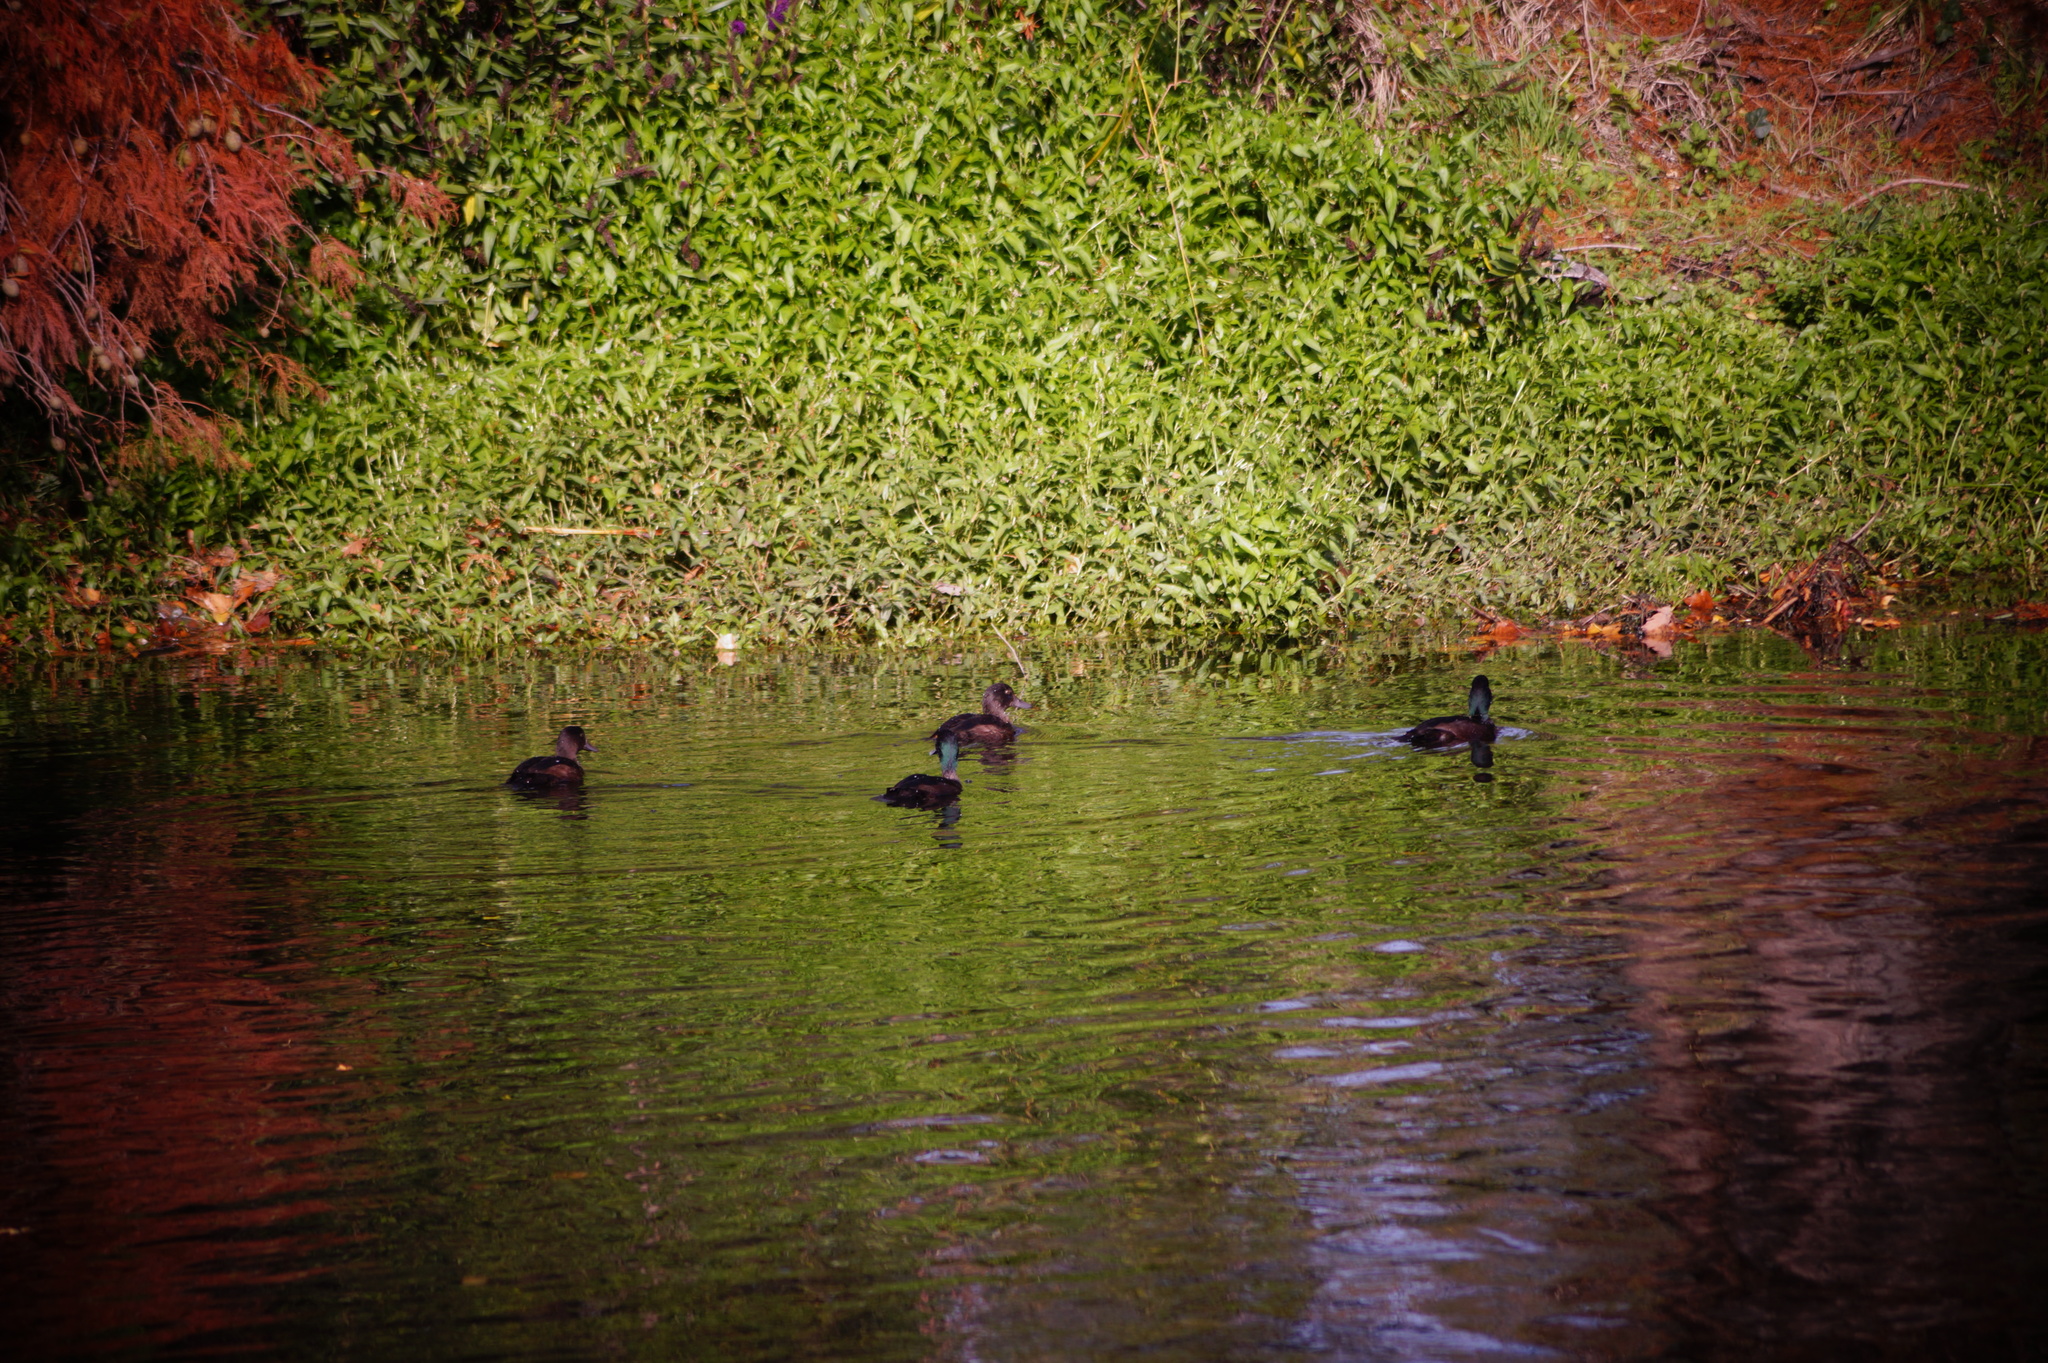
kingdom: Animalia
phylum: Chordata
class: Aves
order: Anseriformes
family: Anatidae
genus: Aythya
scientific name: Aythya novaeseelandiae
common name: New zealand scaup
